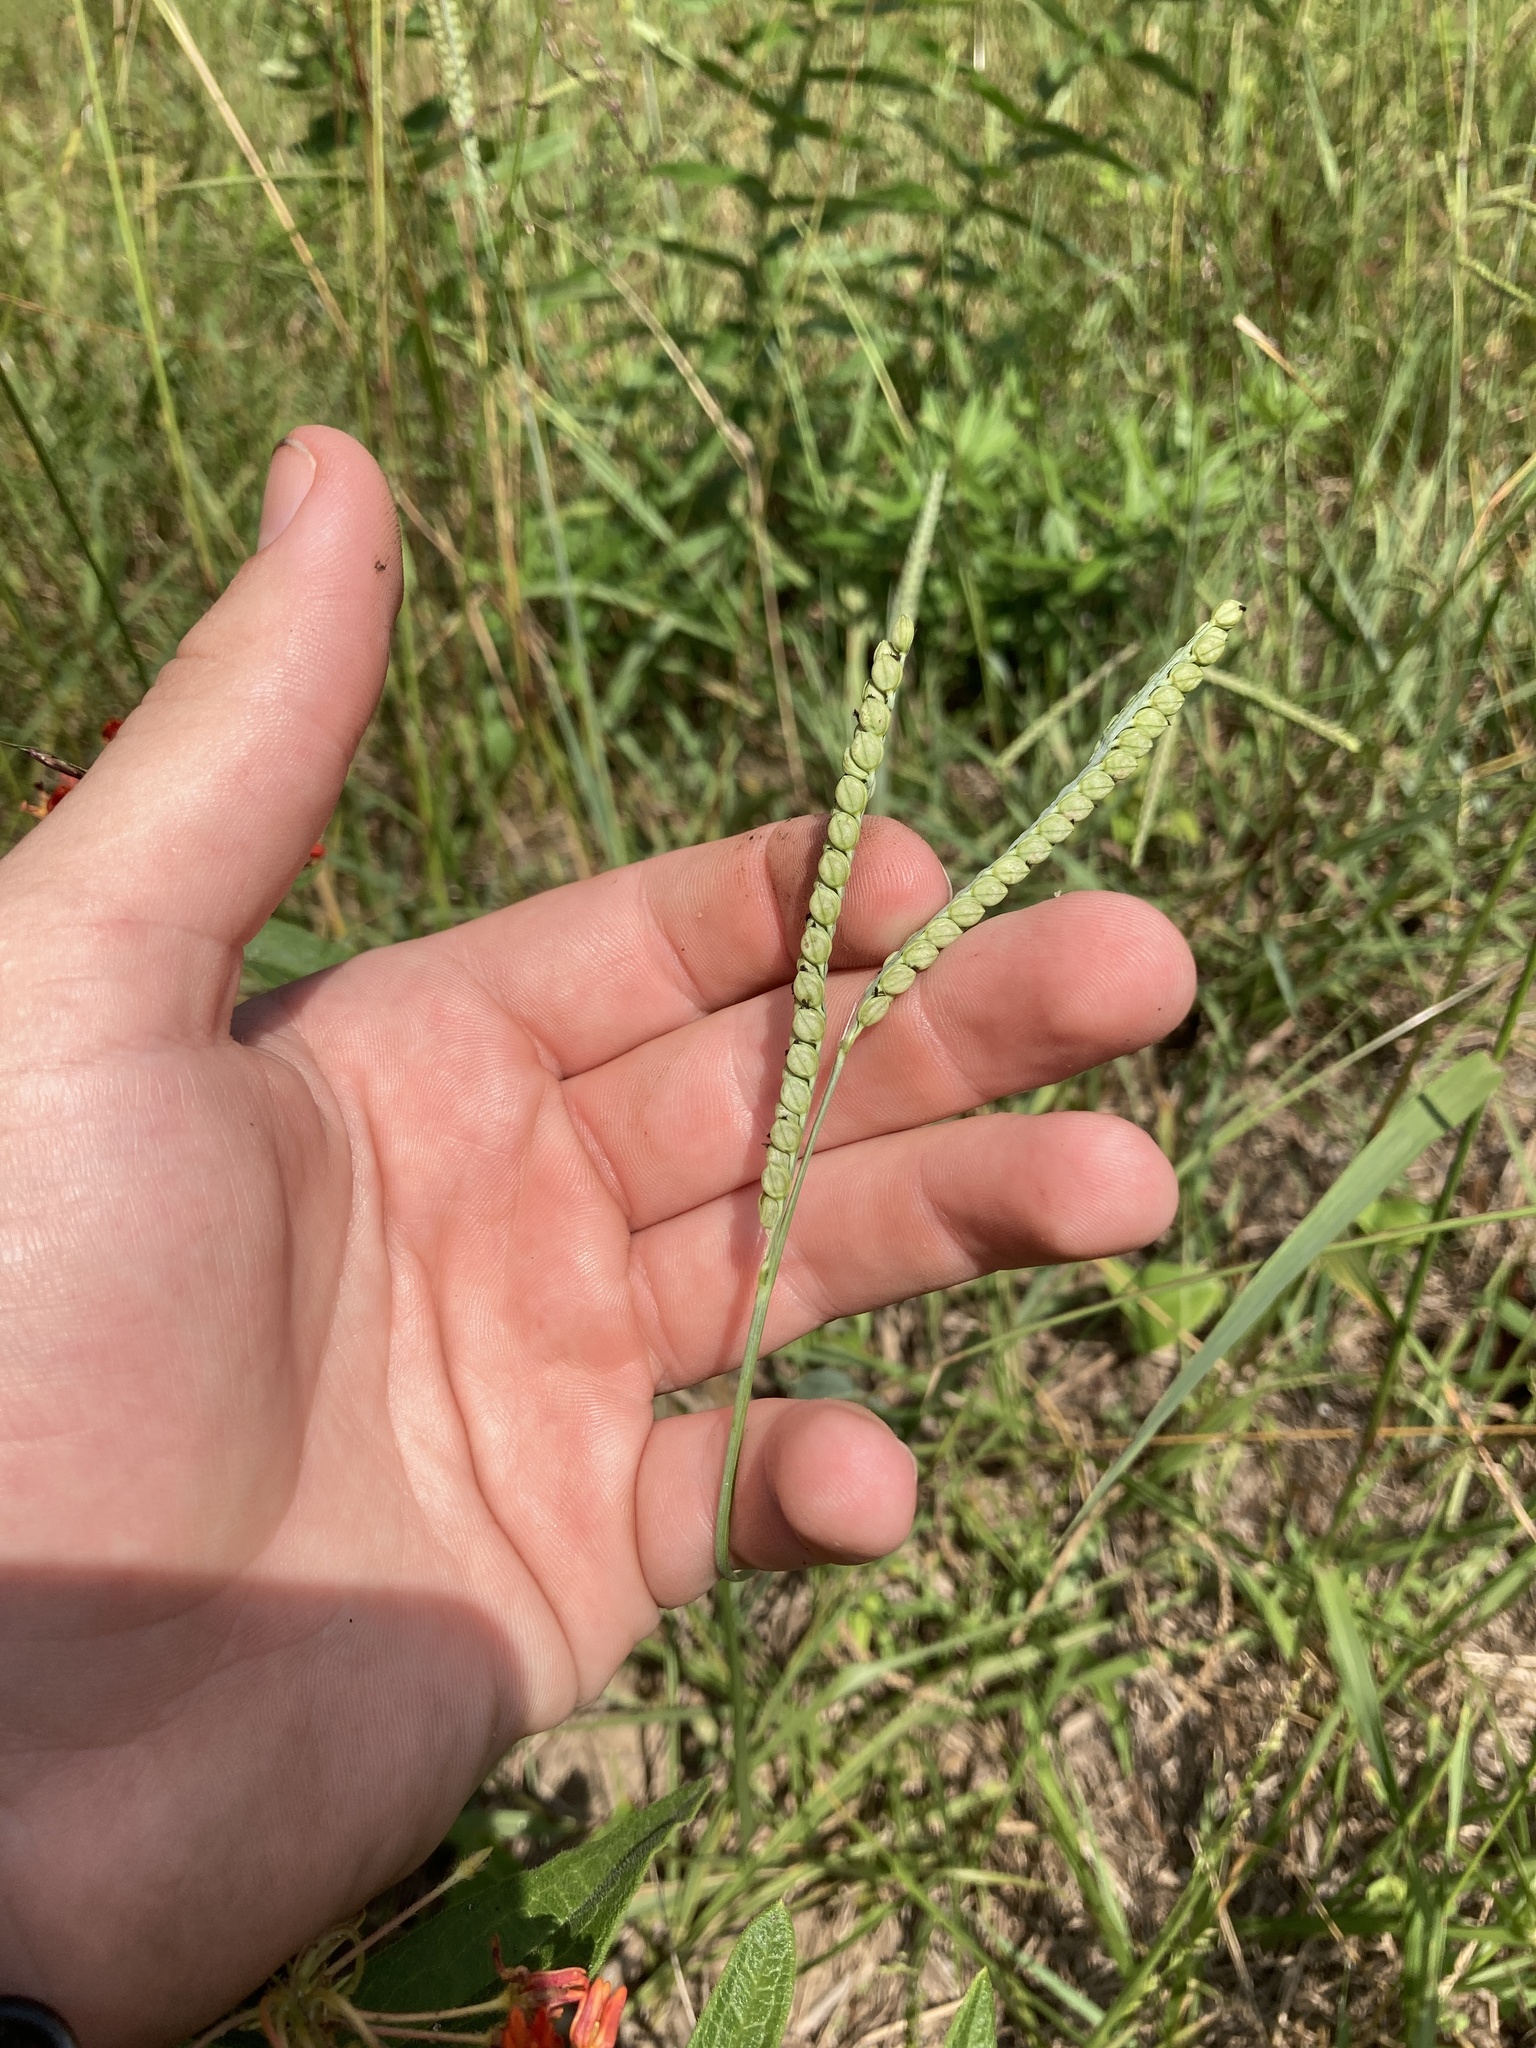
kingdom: Plantae
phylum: Tracheophyta
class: Liliopsida
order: Poales
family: Poaceae
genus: Paspalum
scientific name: Paspalum floridanum
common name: Florida paspalum
